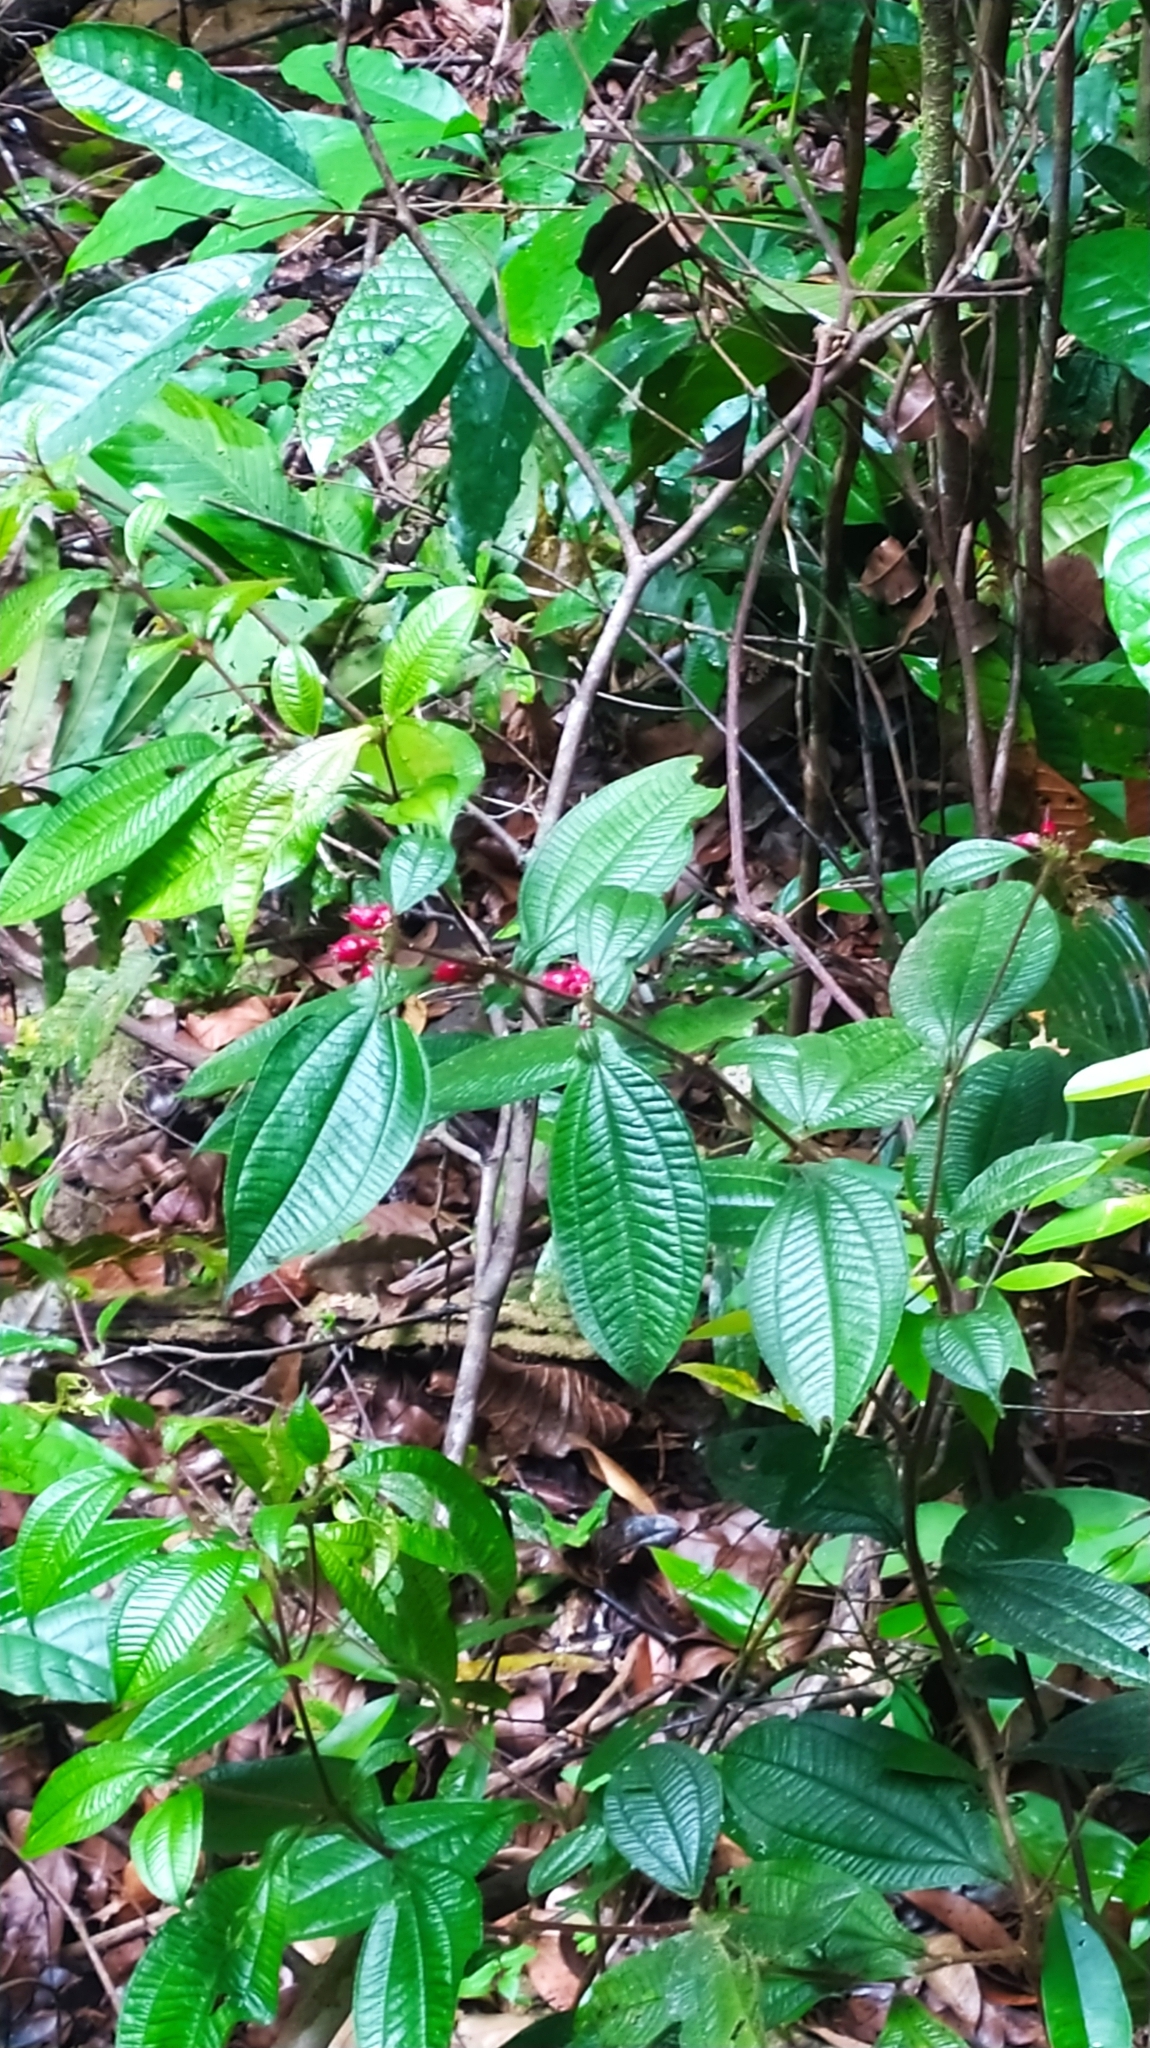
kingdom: Plantae
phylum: Tracheophyta
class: Magnoliopsida
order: Myrtales
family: Melastomataceae
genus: Miconia
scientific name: Miconia mayeta
